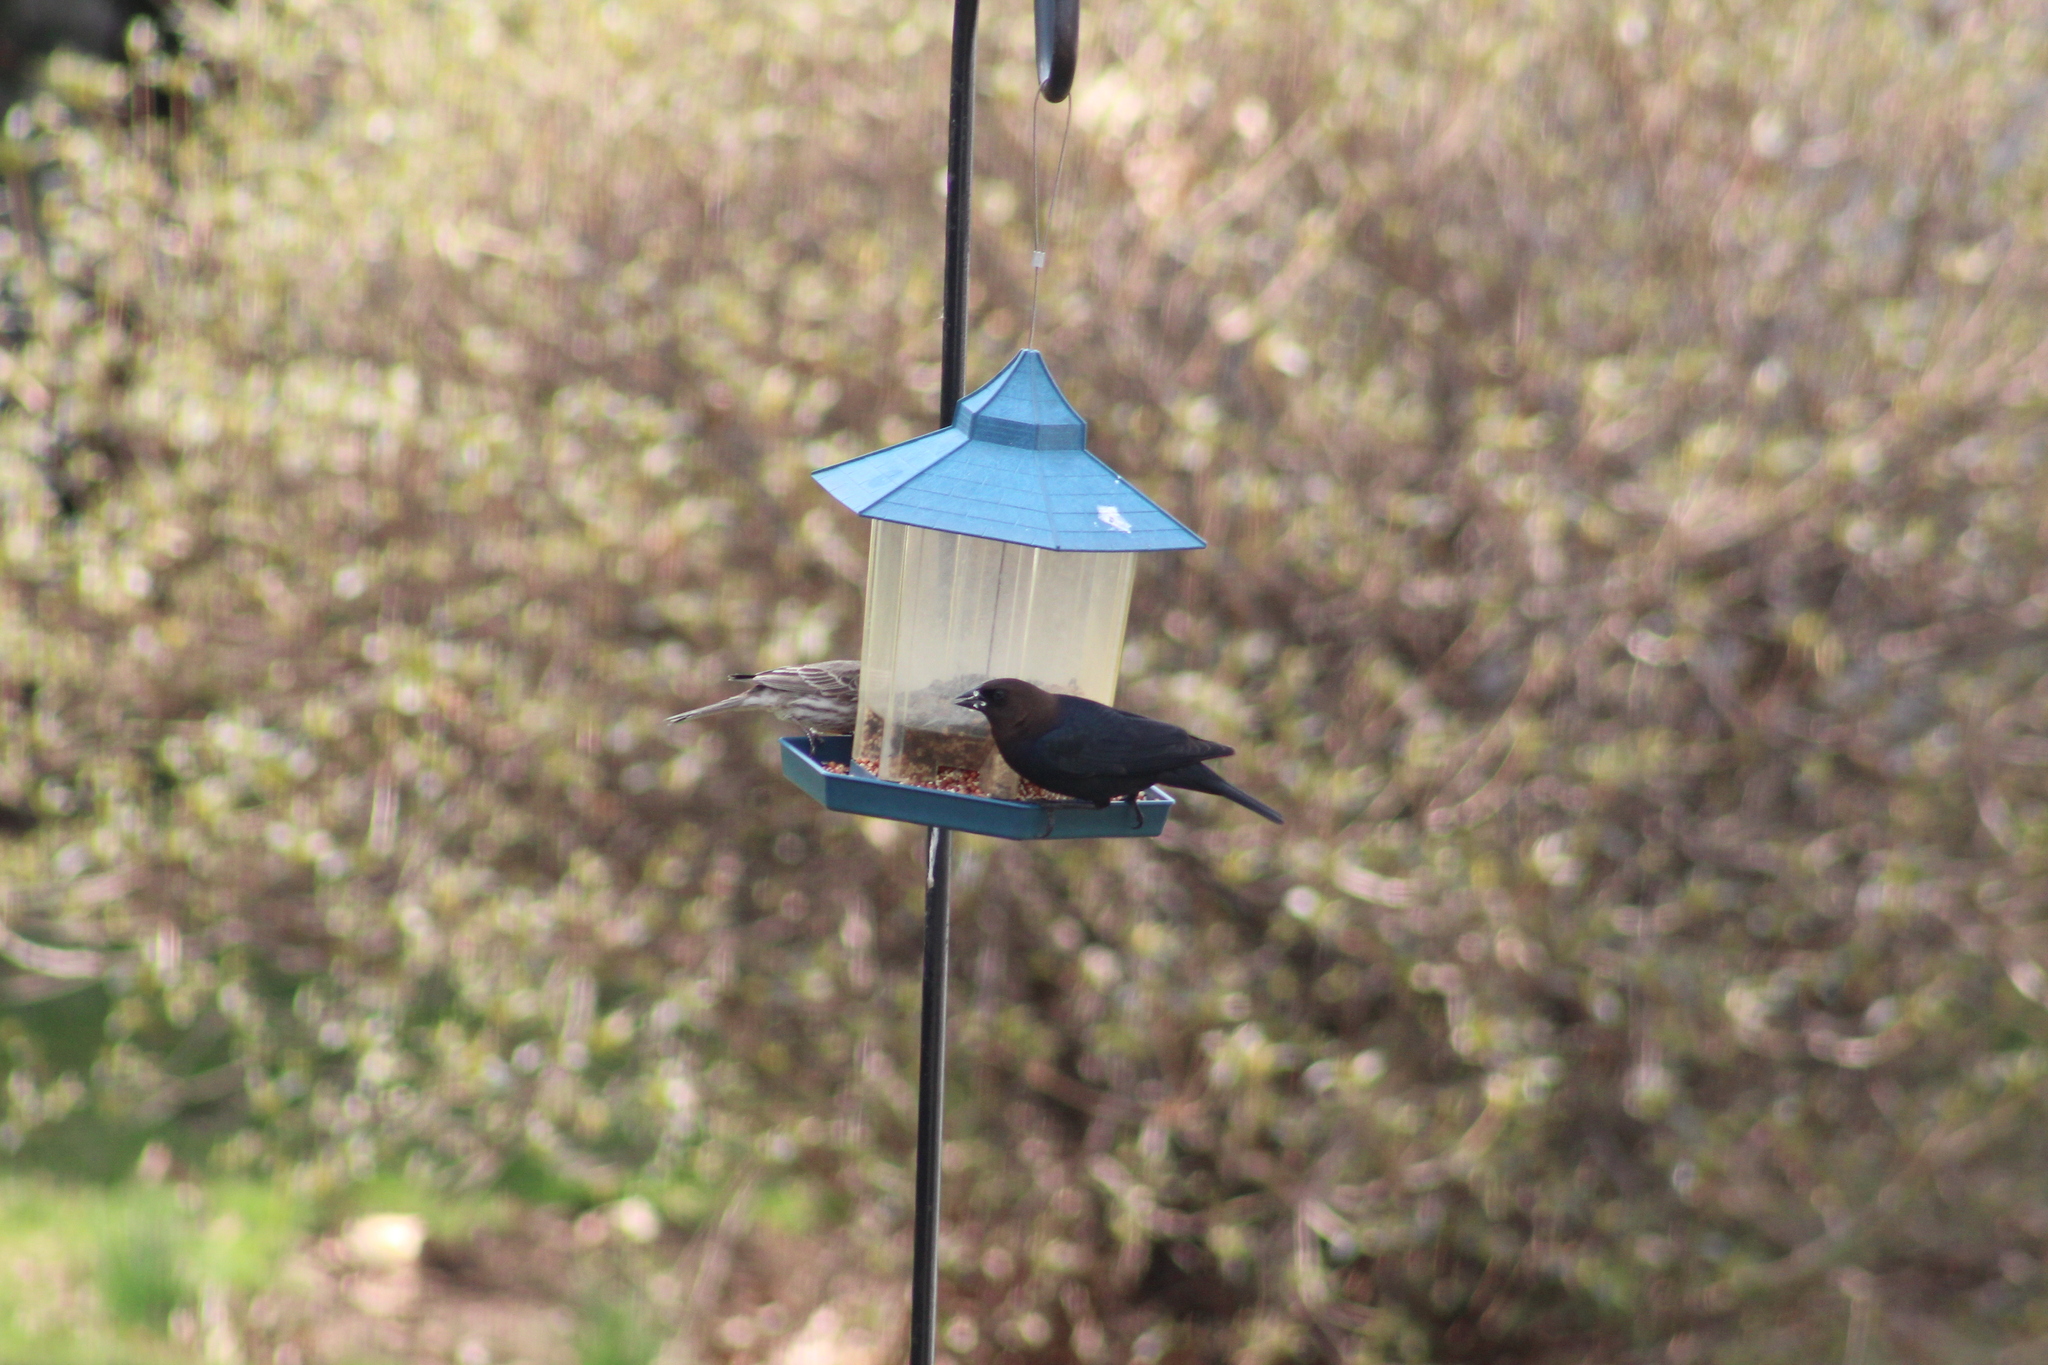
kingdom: Animalia
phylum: Chordata
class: Aves
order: Passeriformes
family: Icteridae
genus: Molothrus
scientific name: Molothrus ater
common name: Brown-headed cowbird
